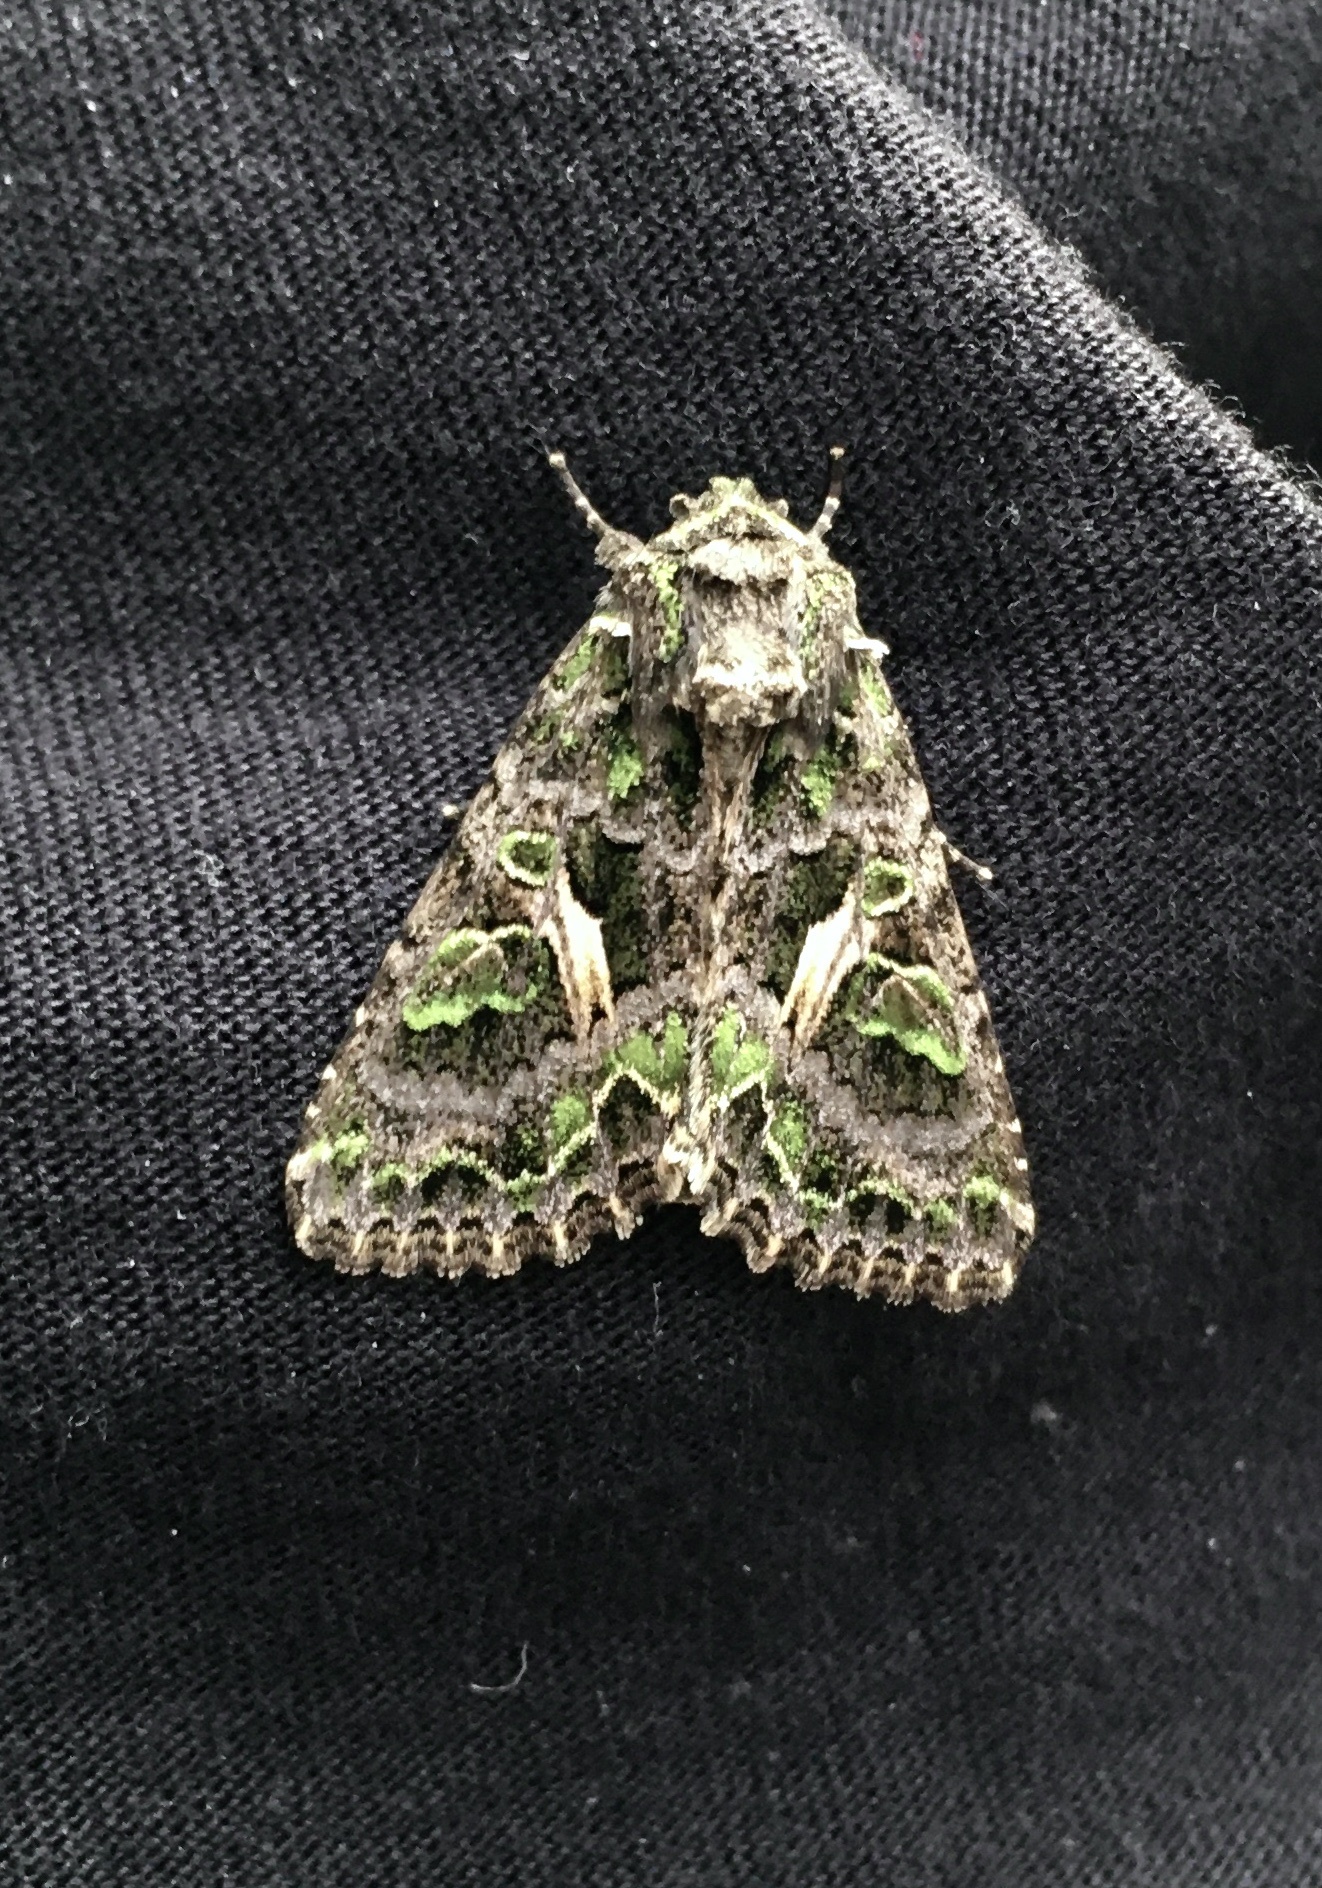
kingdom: Animalia
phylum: Arthropoda
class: Insecta
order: Lepidoptera
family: Noctuidae
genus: Trachea
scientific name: Trachea atriplicis
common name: Orache moth
